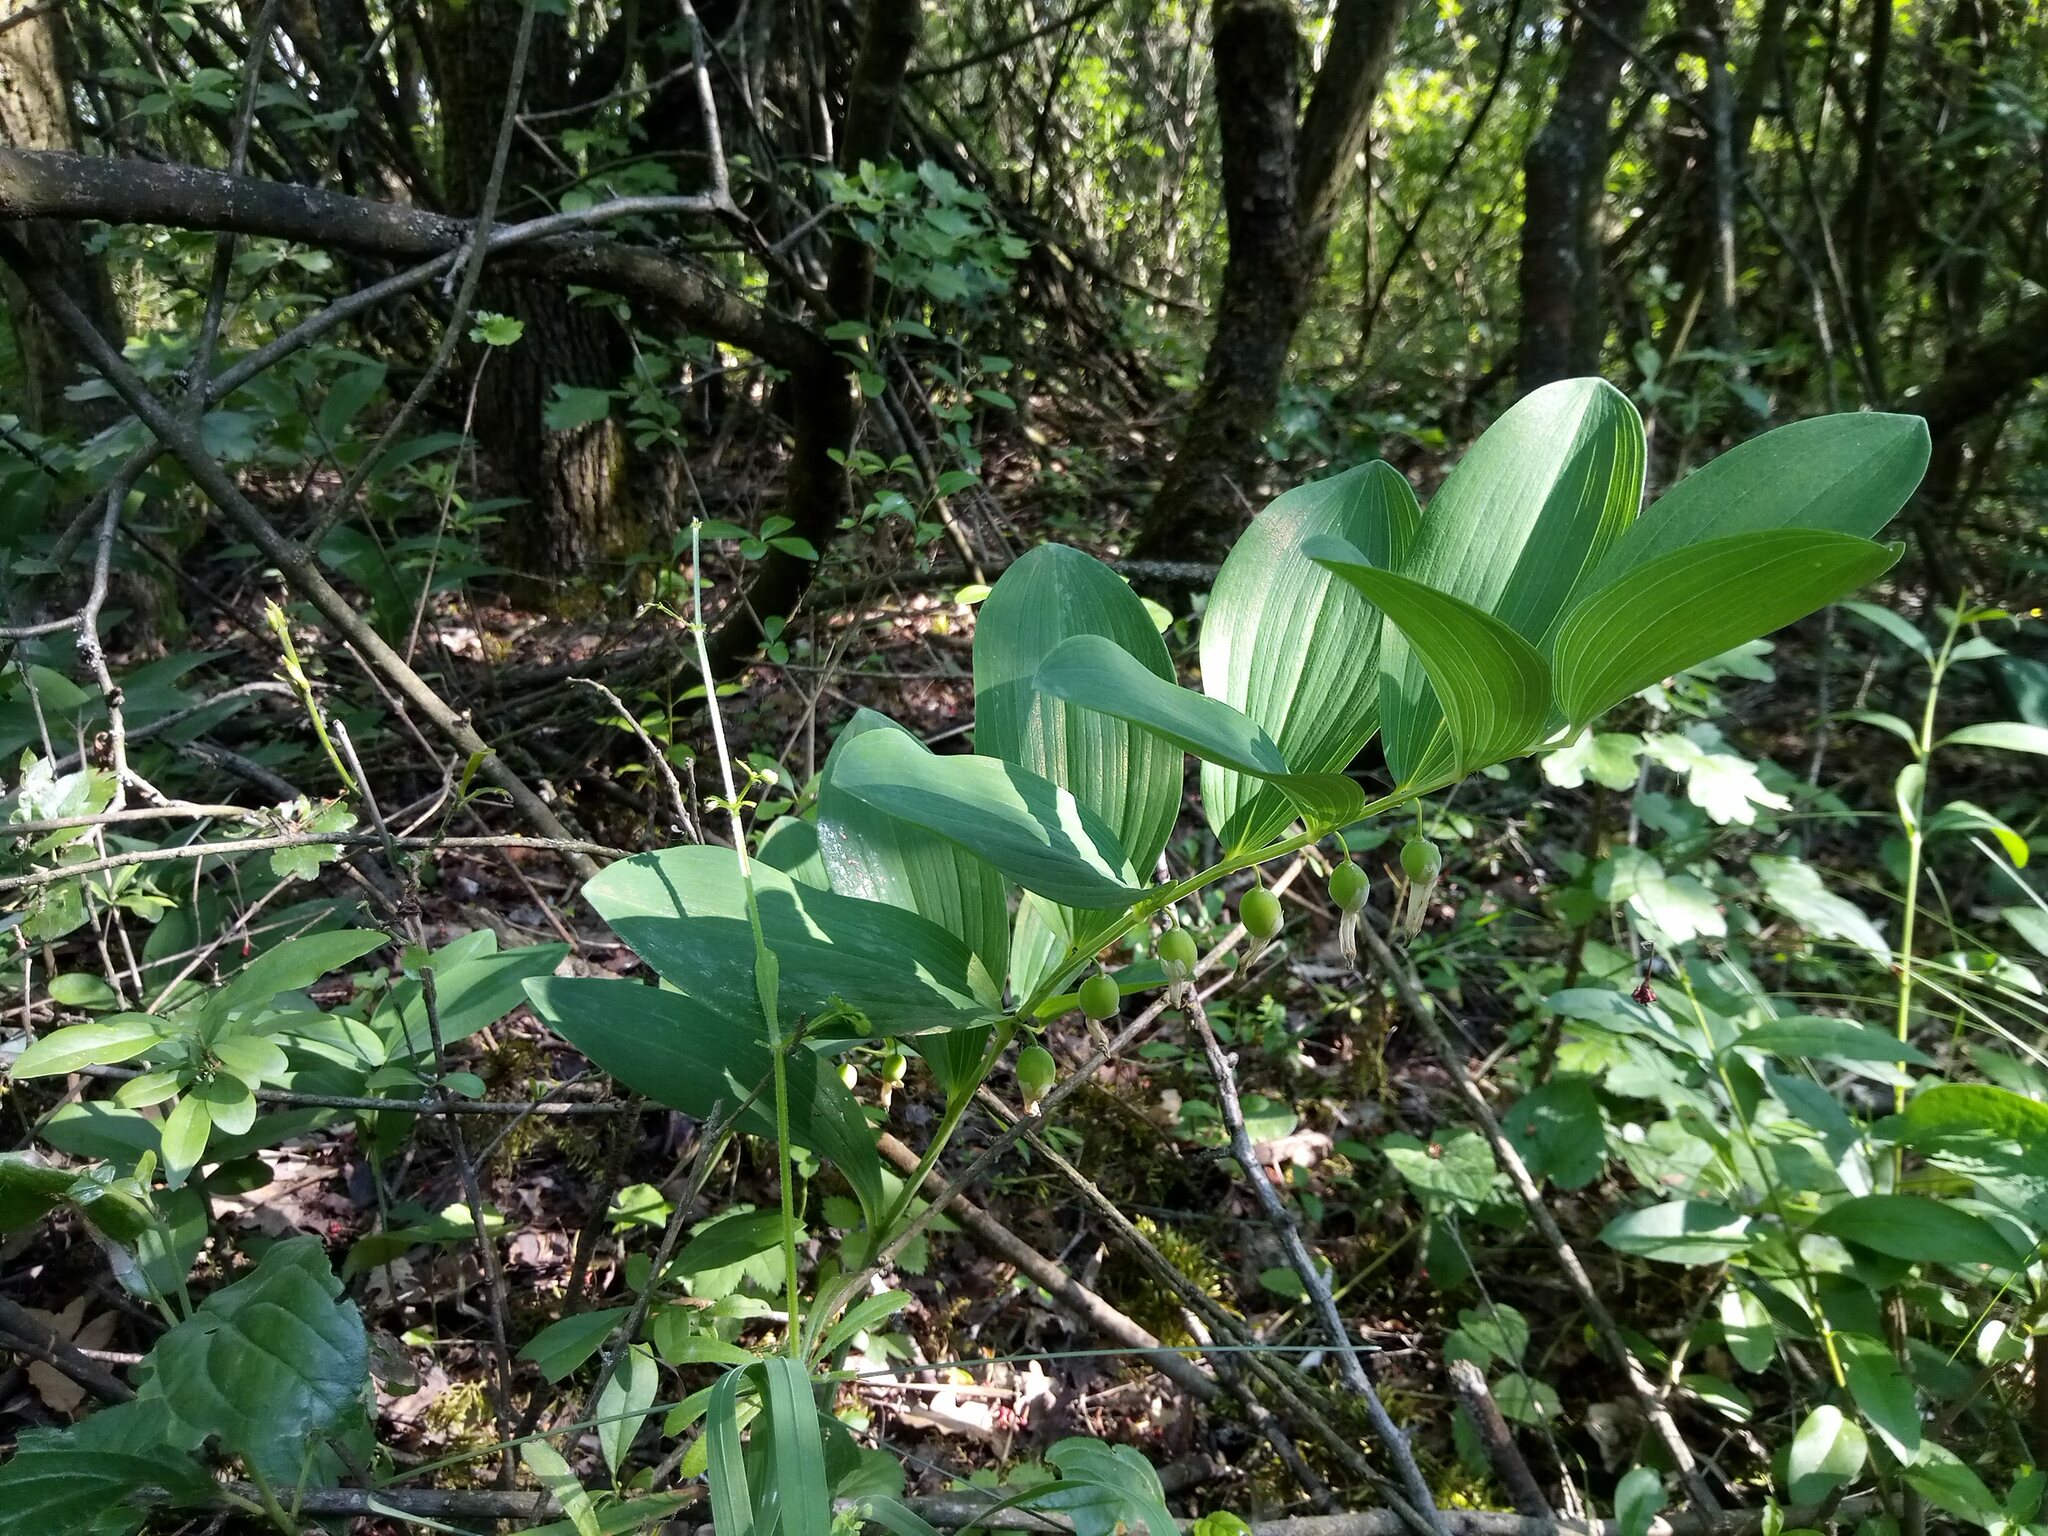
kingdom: Plantae
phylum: Tracheophyta
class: Liliopsida
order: Asparagales
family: Asparagaceae
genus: Polygonatum
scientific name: Polygonatum odoratum
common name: Angular solomon's-seal
